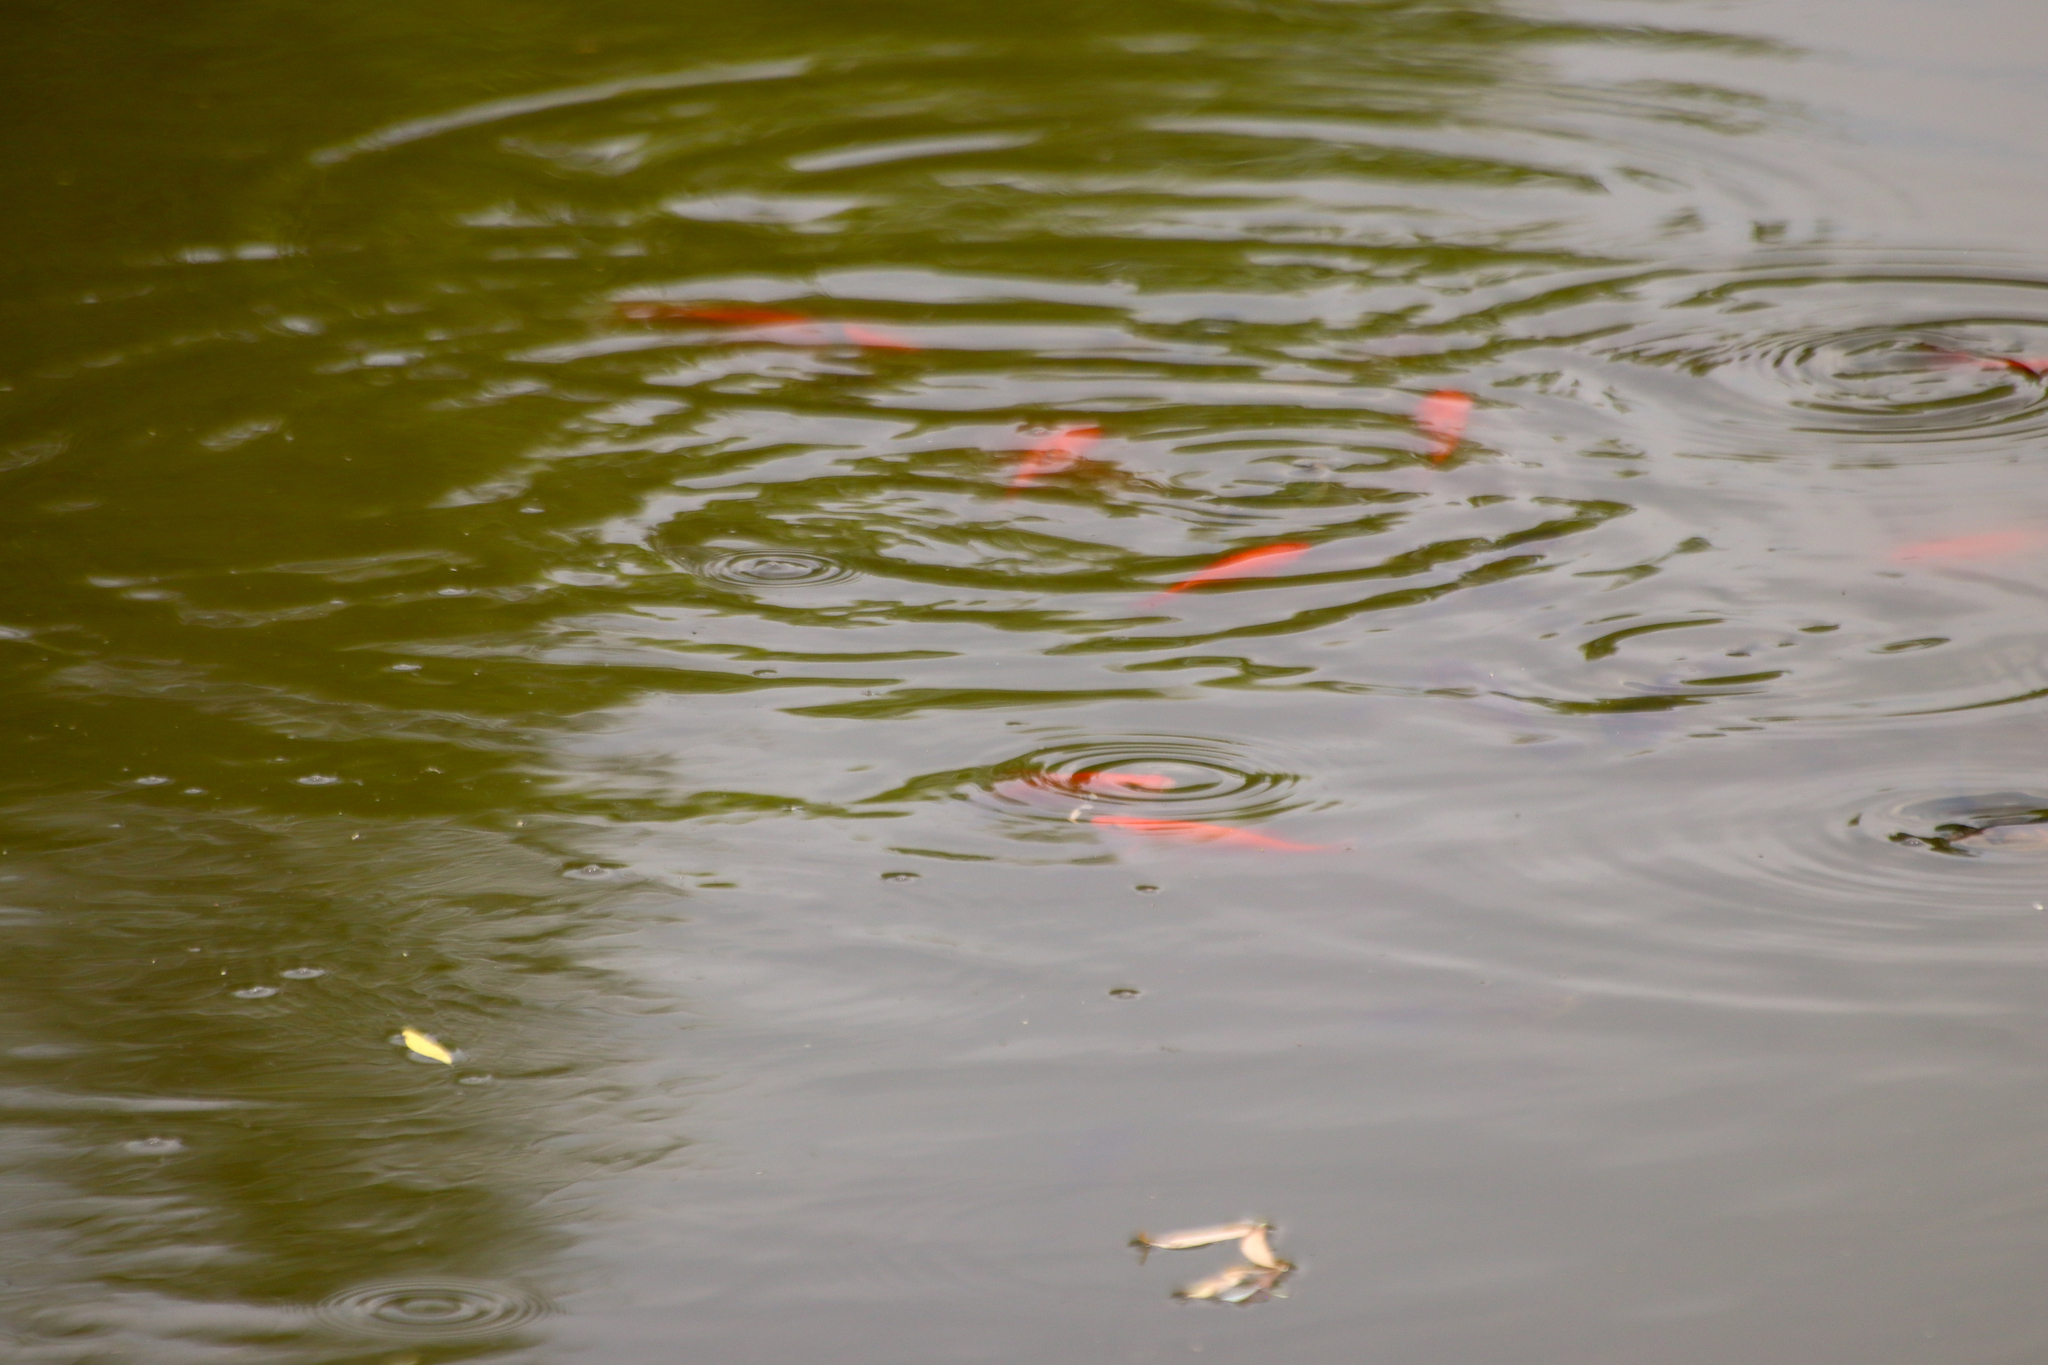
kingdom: Animalia
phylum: Chordata
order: Cypriniformes
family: Cyprinidae
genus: Carassius
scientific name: Carassius auratus
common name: Goldfish
